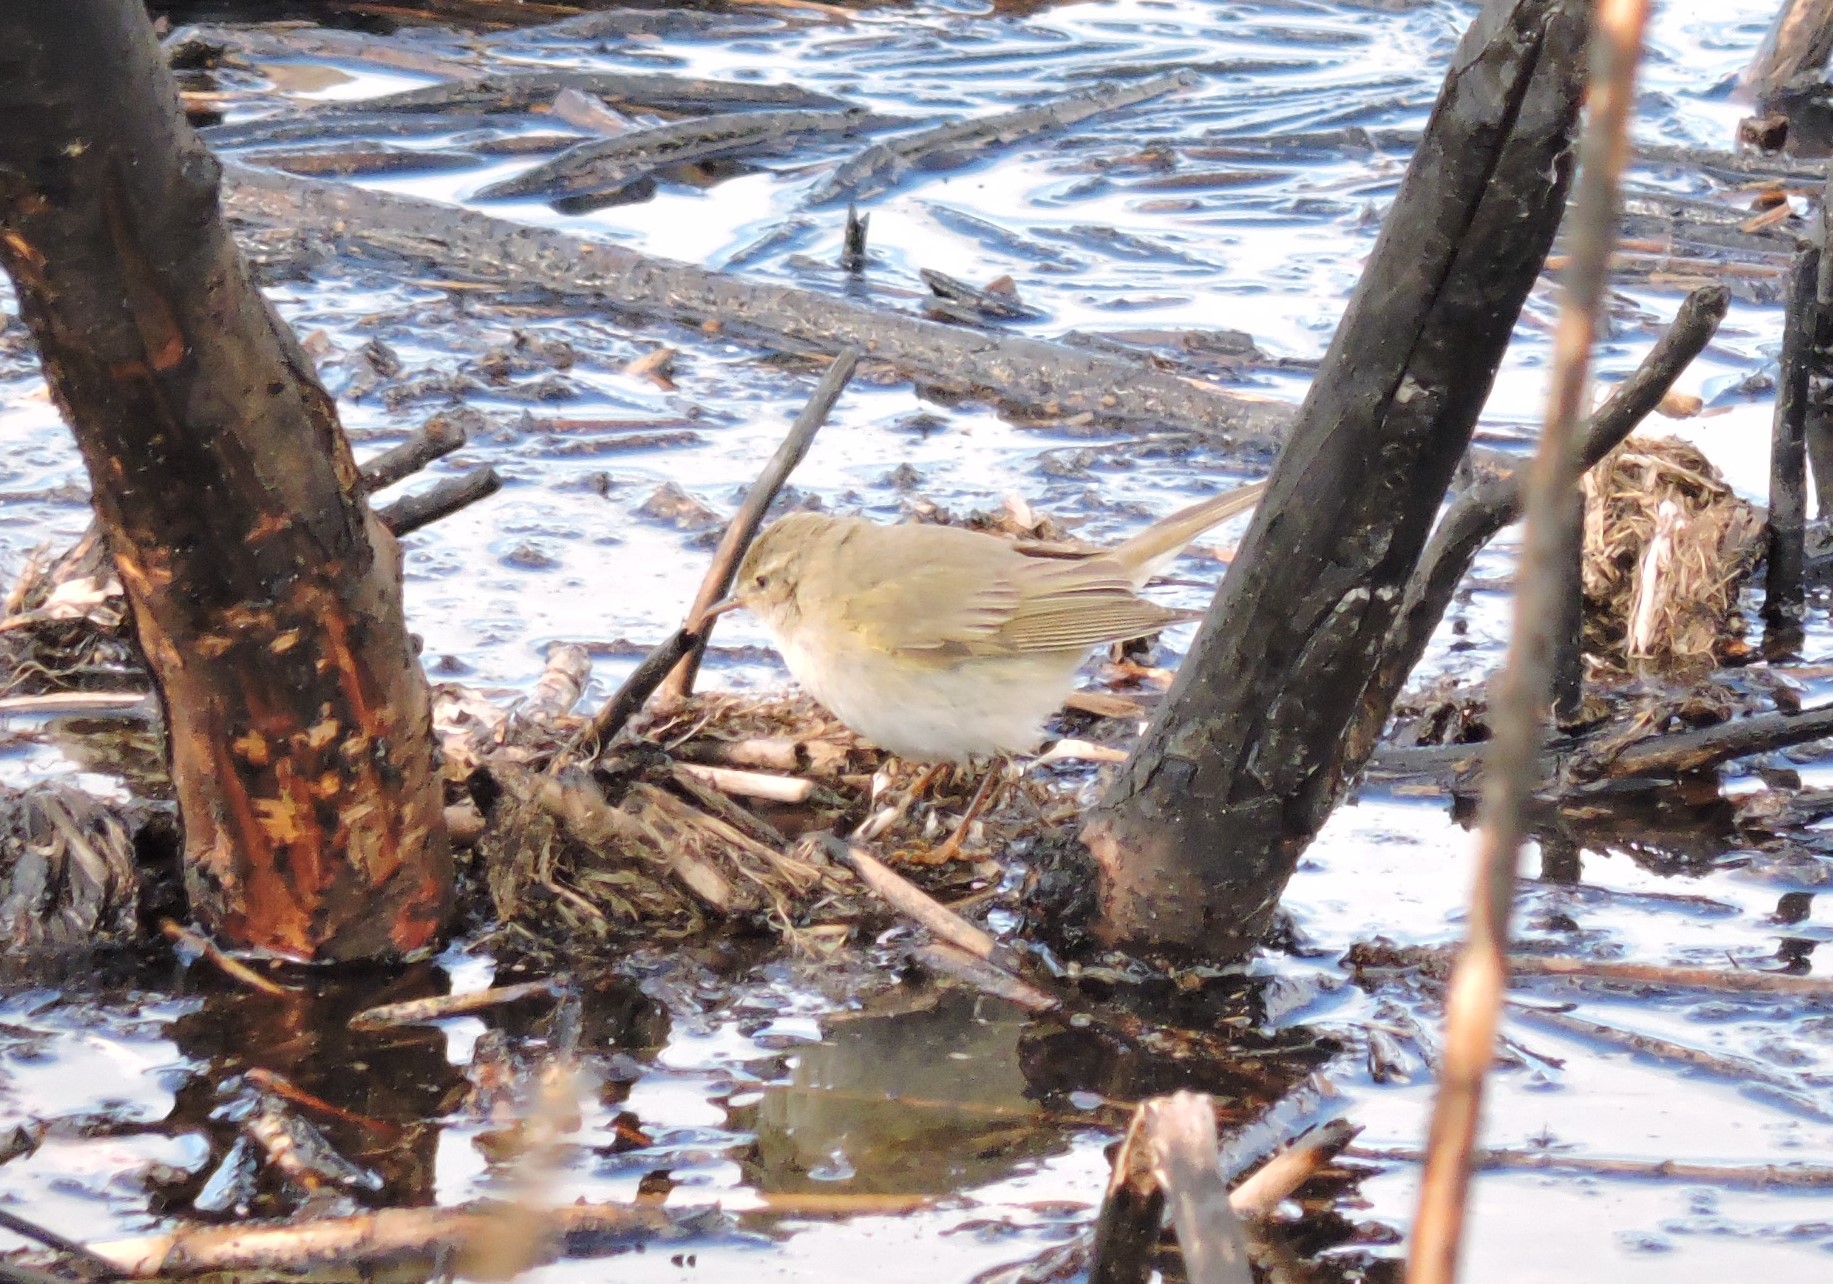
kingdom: Animalia
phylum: Chordata
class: Aves
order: Passeriformes
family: Phylloscopidae
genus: Phylloscopus
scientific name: Phylloscopus trochilus
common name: Willow warbler
